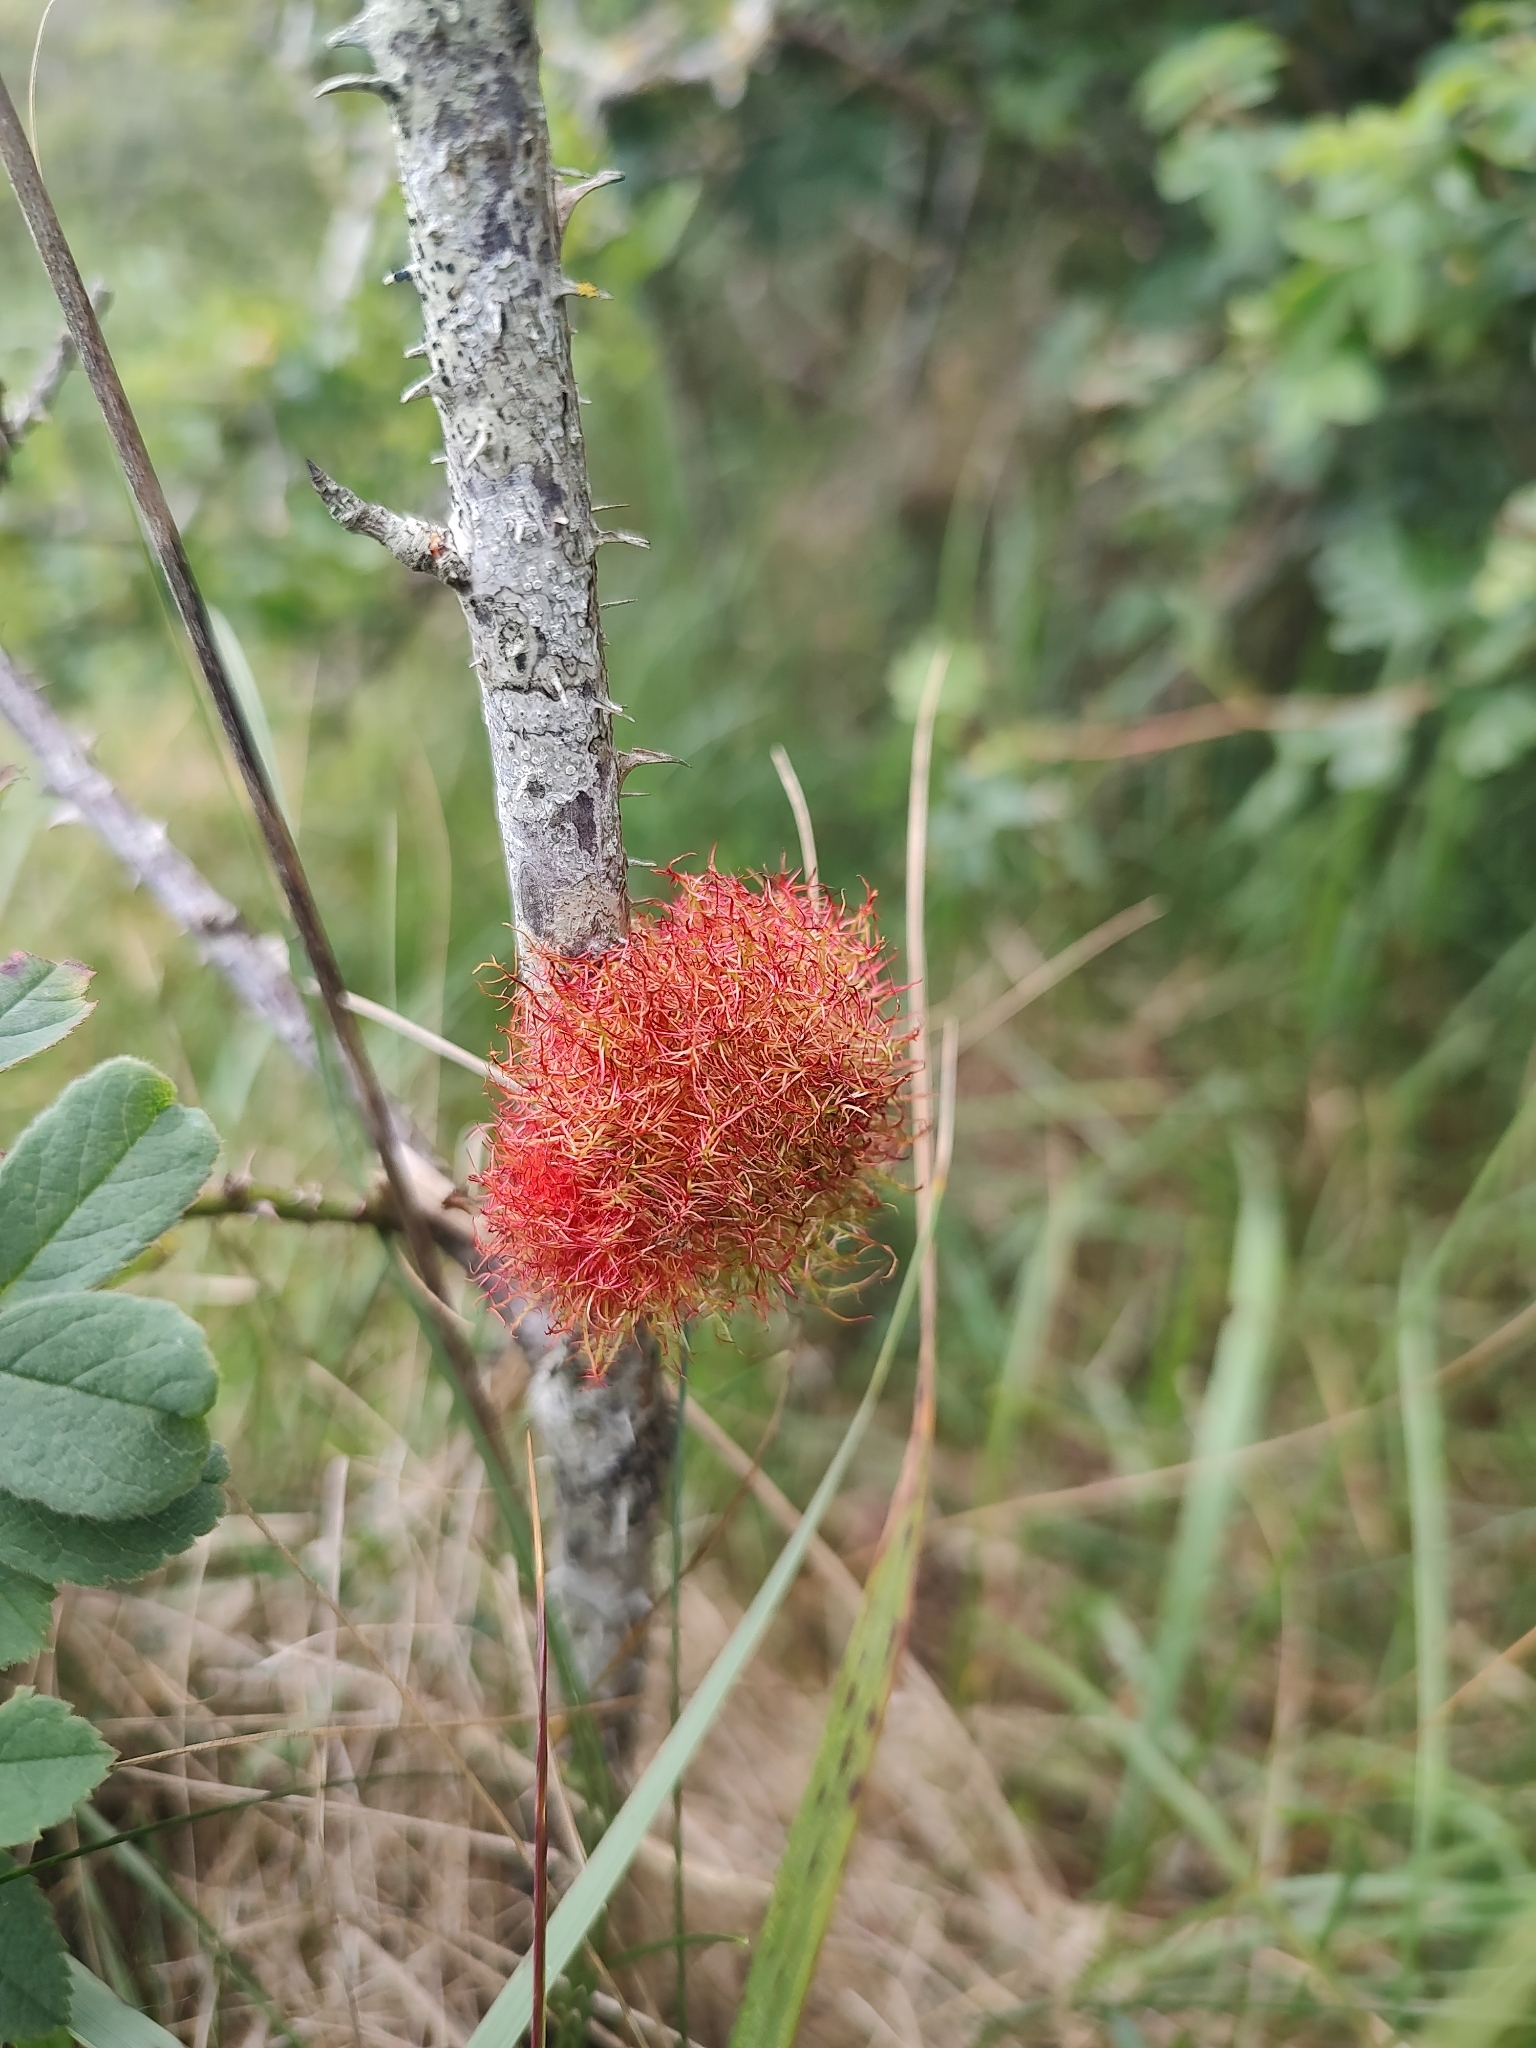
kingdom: Animalia
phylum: Arthropoda
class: Insecta
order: Hymenoptera
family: Cynipidae
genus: Diplolepis
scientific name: Diplolepis rosae
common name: Bedeguar gall
